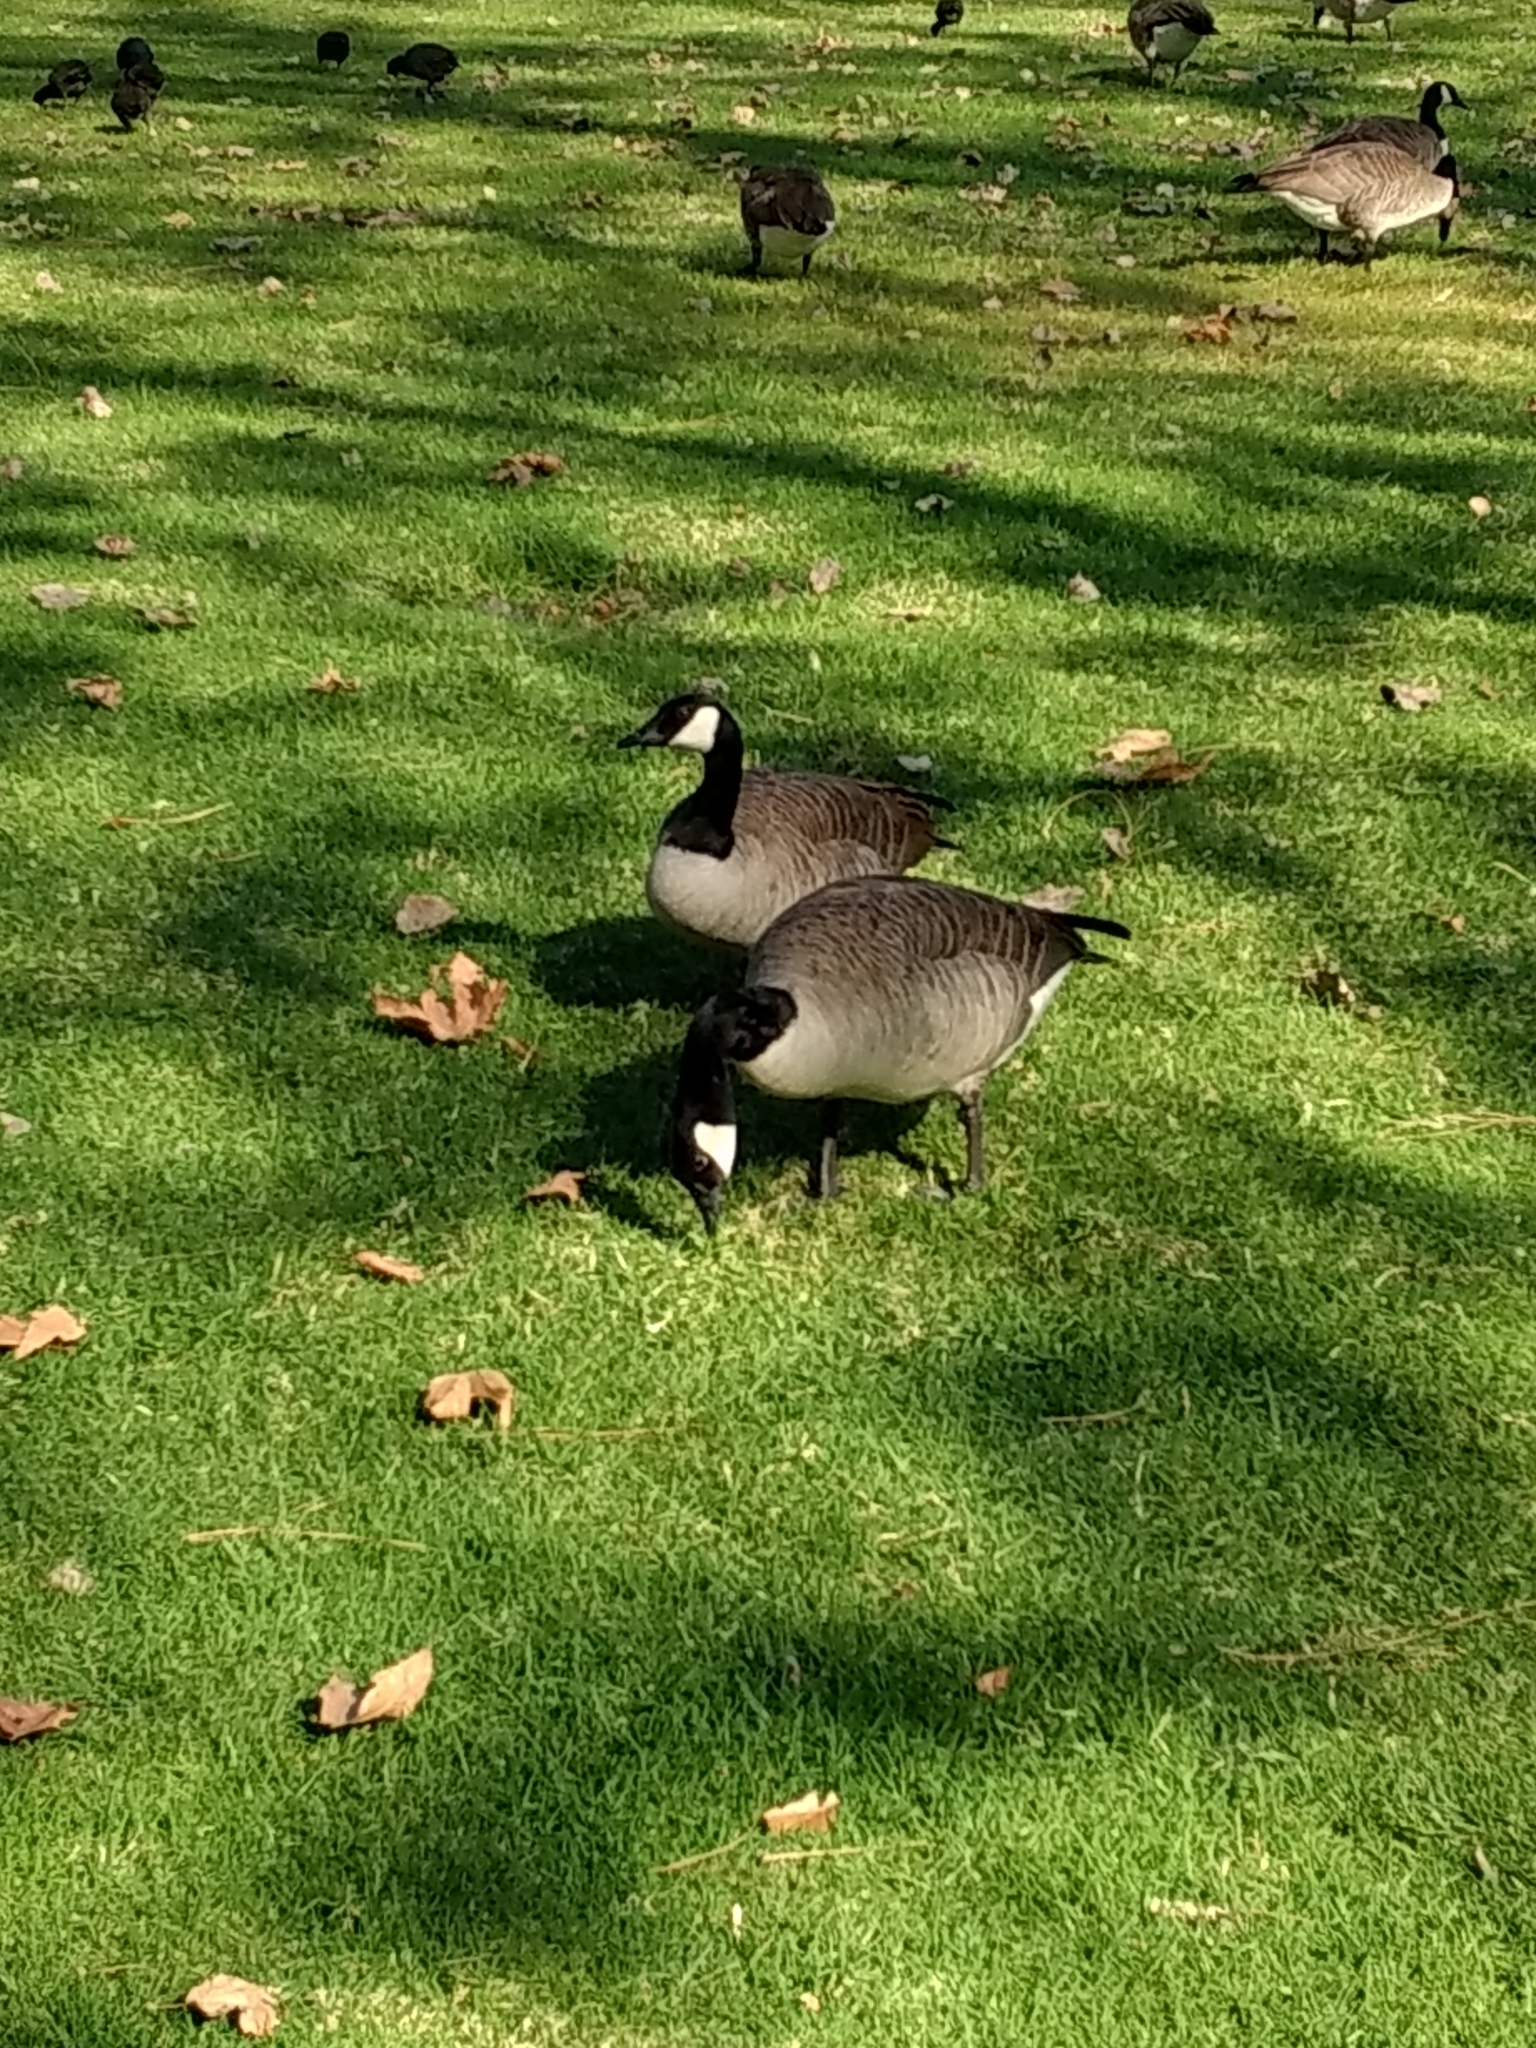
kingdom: Animalia
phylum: Chordata
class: Aves
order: Anseriformes
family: Anatidae
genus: Branta
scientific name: Branta canadensis
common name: Canada goose
